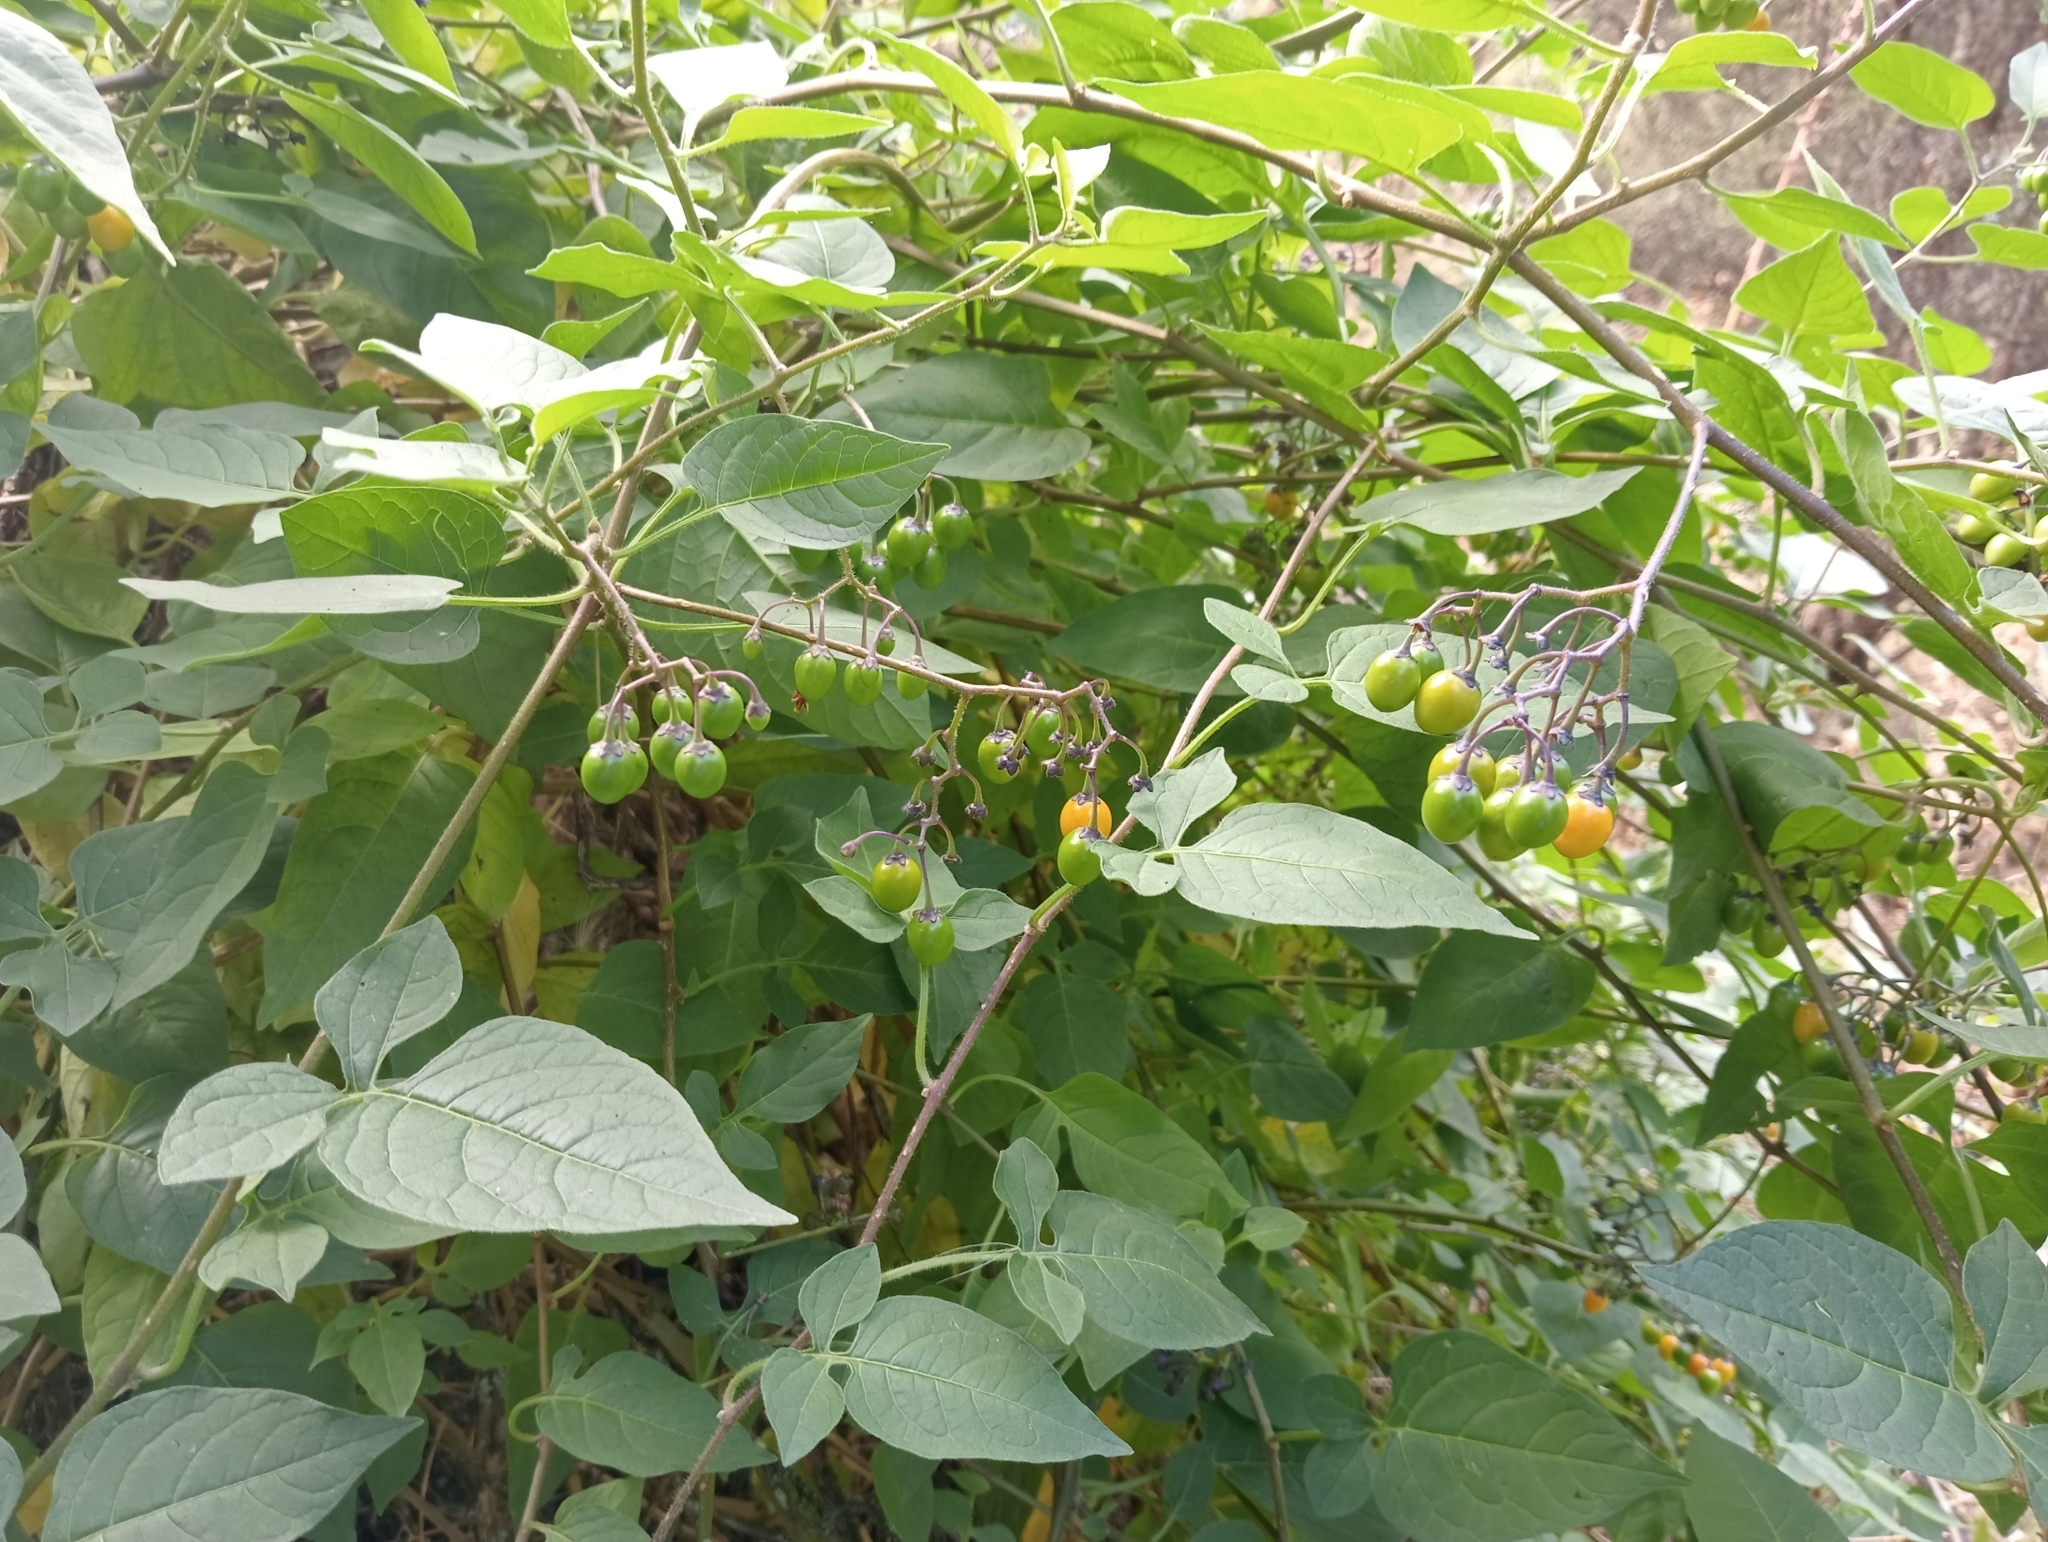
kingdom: Plantae
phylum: Tracheophyta
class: Magnoliopsida
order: Solanales
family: Solanaceae
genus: Solanum
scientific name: Solanum dulcamara
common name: Climbing nightshade
